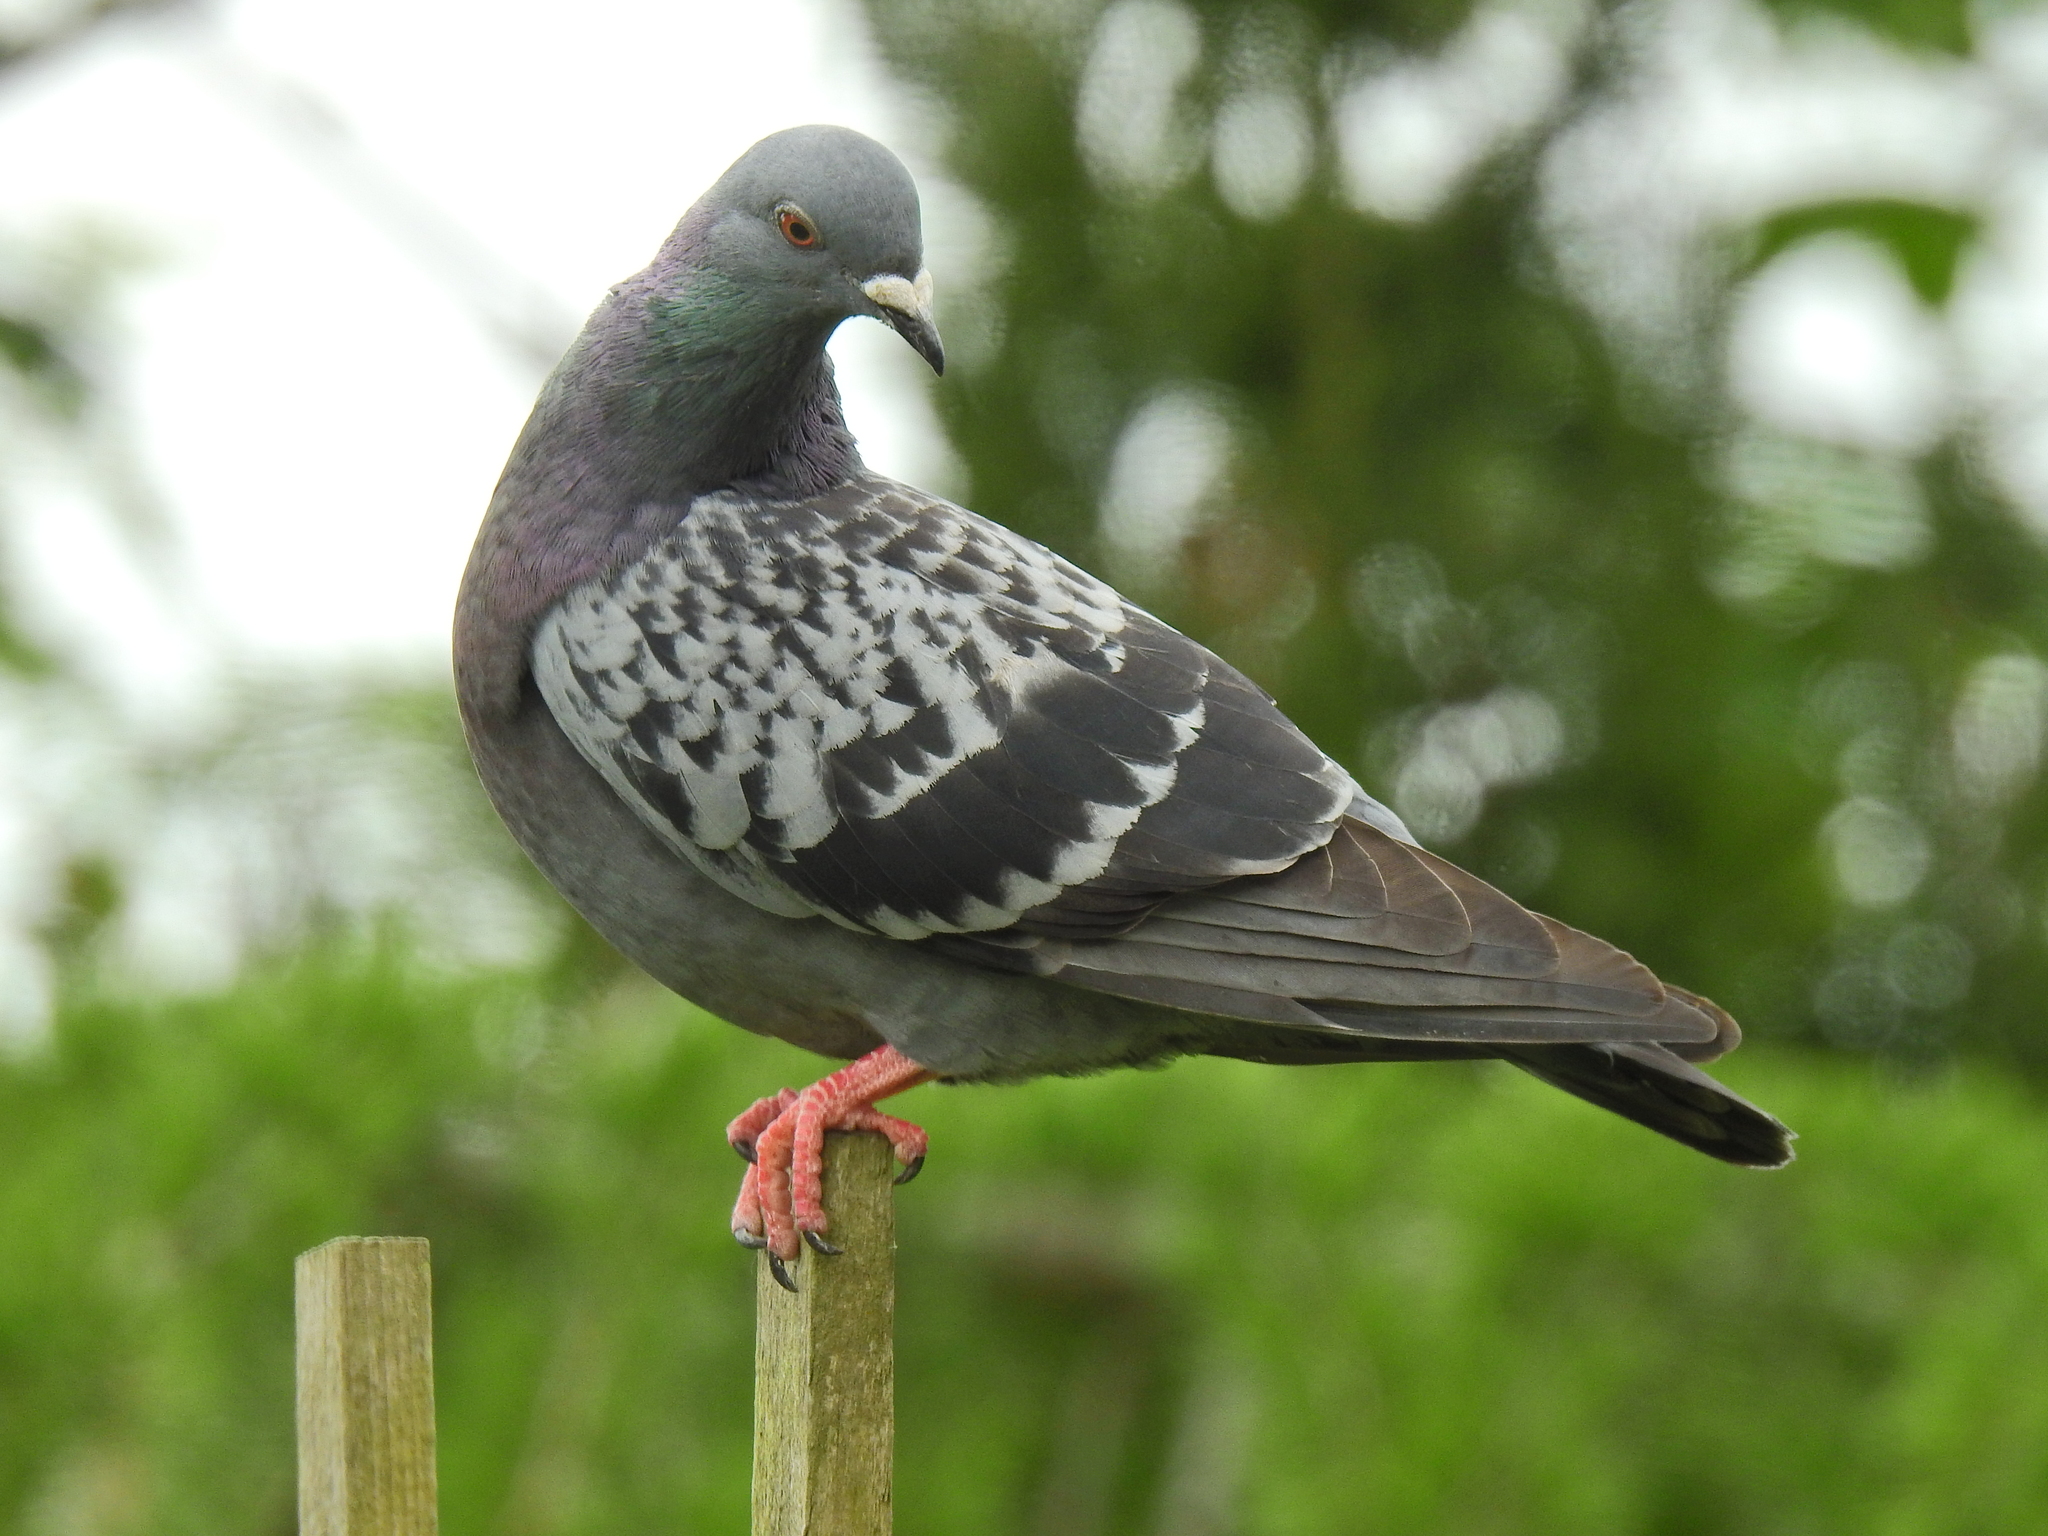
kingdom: Animalia
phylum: Chordata
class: Aves
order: Columbiformes
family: Columbidae
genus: Columba
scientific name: Columba livia
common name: Rock pigeon
